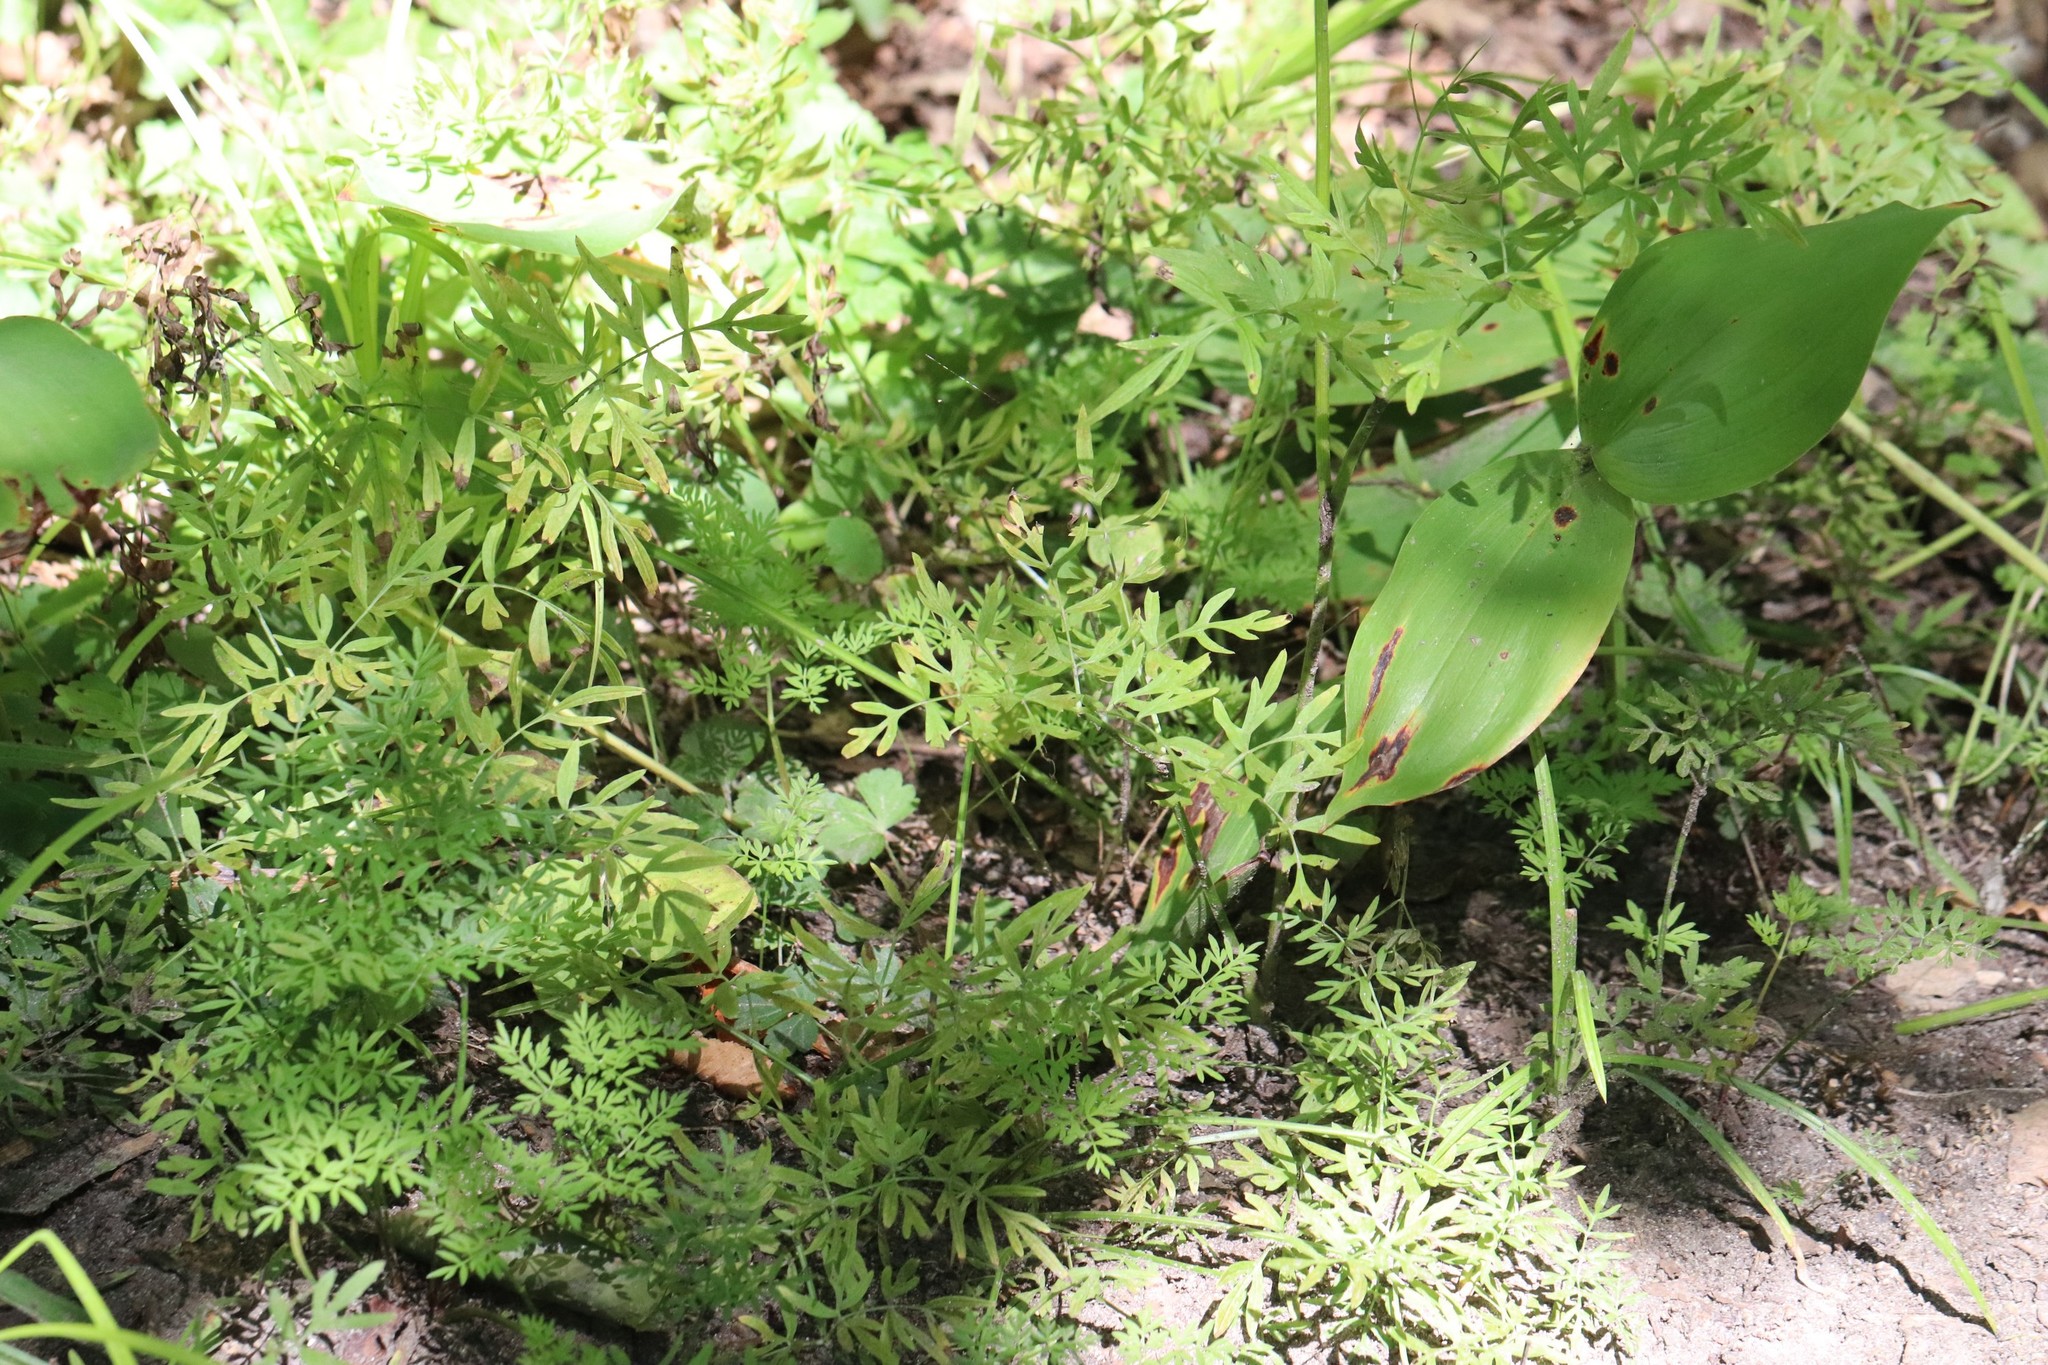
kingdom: Plantae
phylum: Tracheophyta
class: Magnoliopsida
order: Apiales
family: Apiaceae
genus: Ostericum
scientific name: Ostericum maximowiczii
